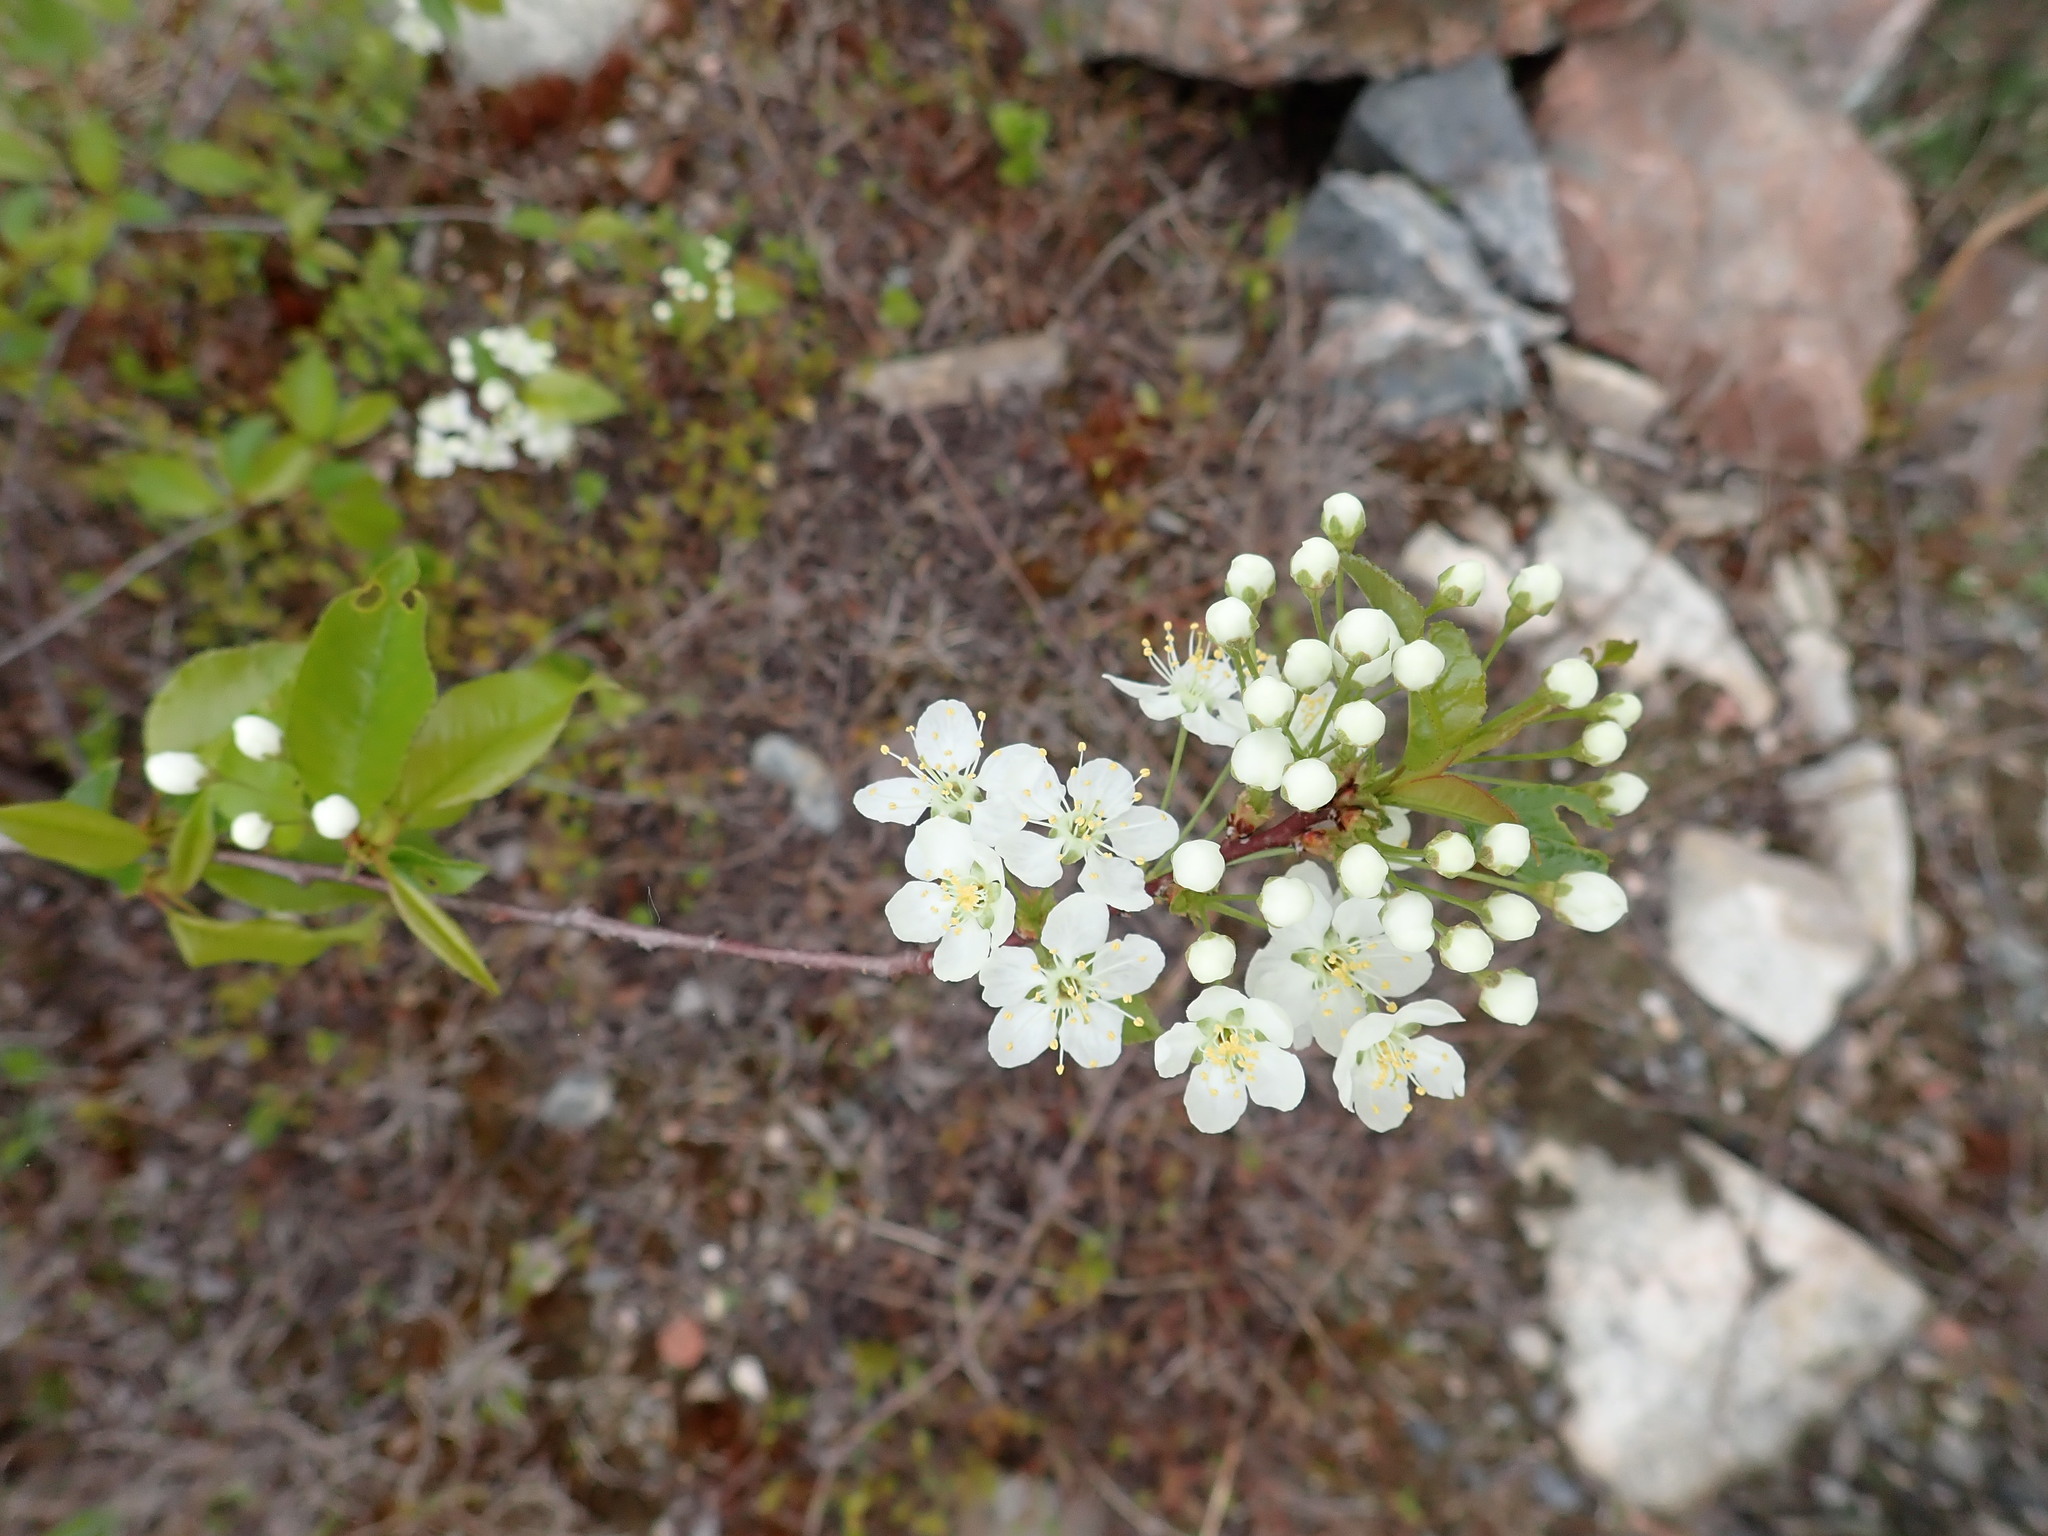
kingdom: Plantae
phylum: Tracheophyta
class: Magnoliopsida
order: Rosales
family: Rosaceae
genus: Prunus
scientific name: Prunus pensylvanica
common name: Pin cherry
